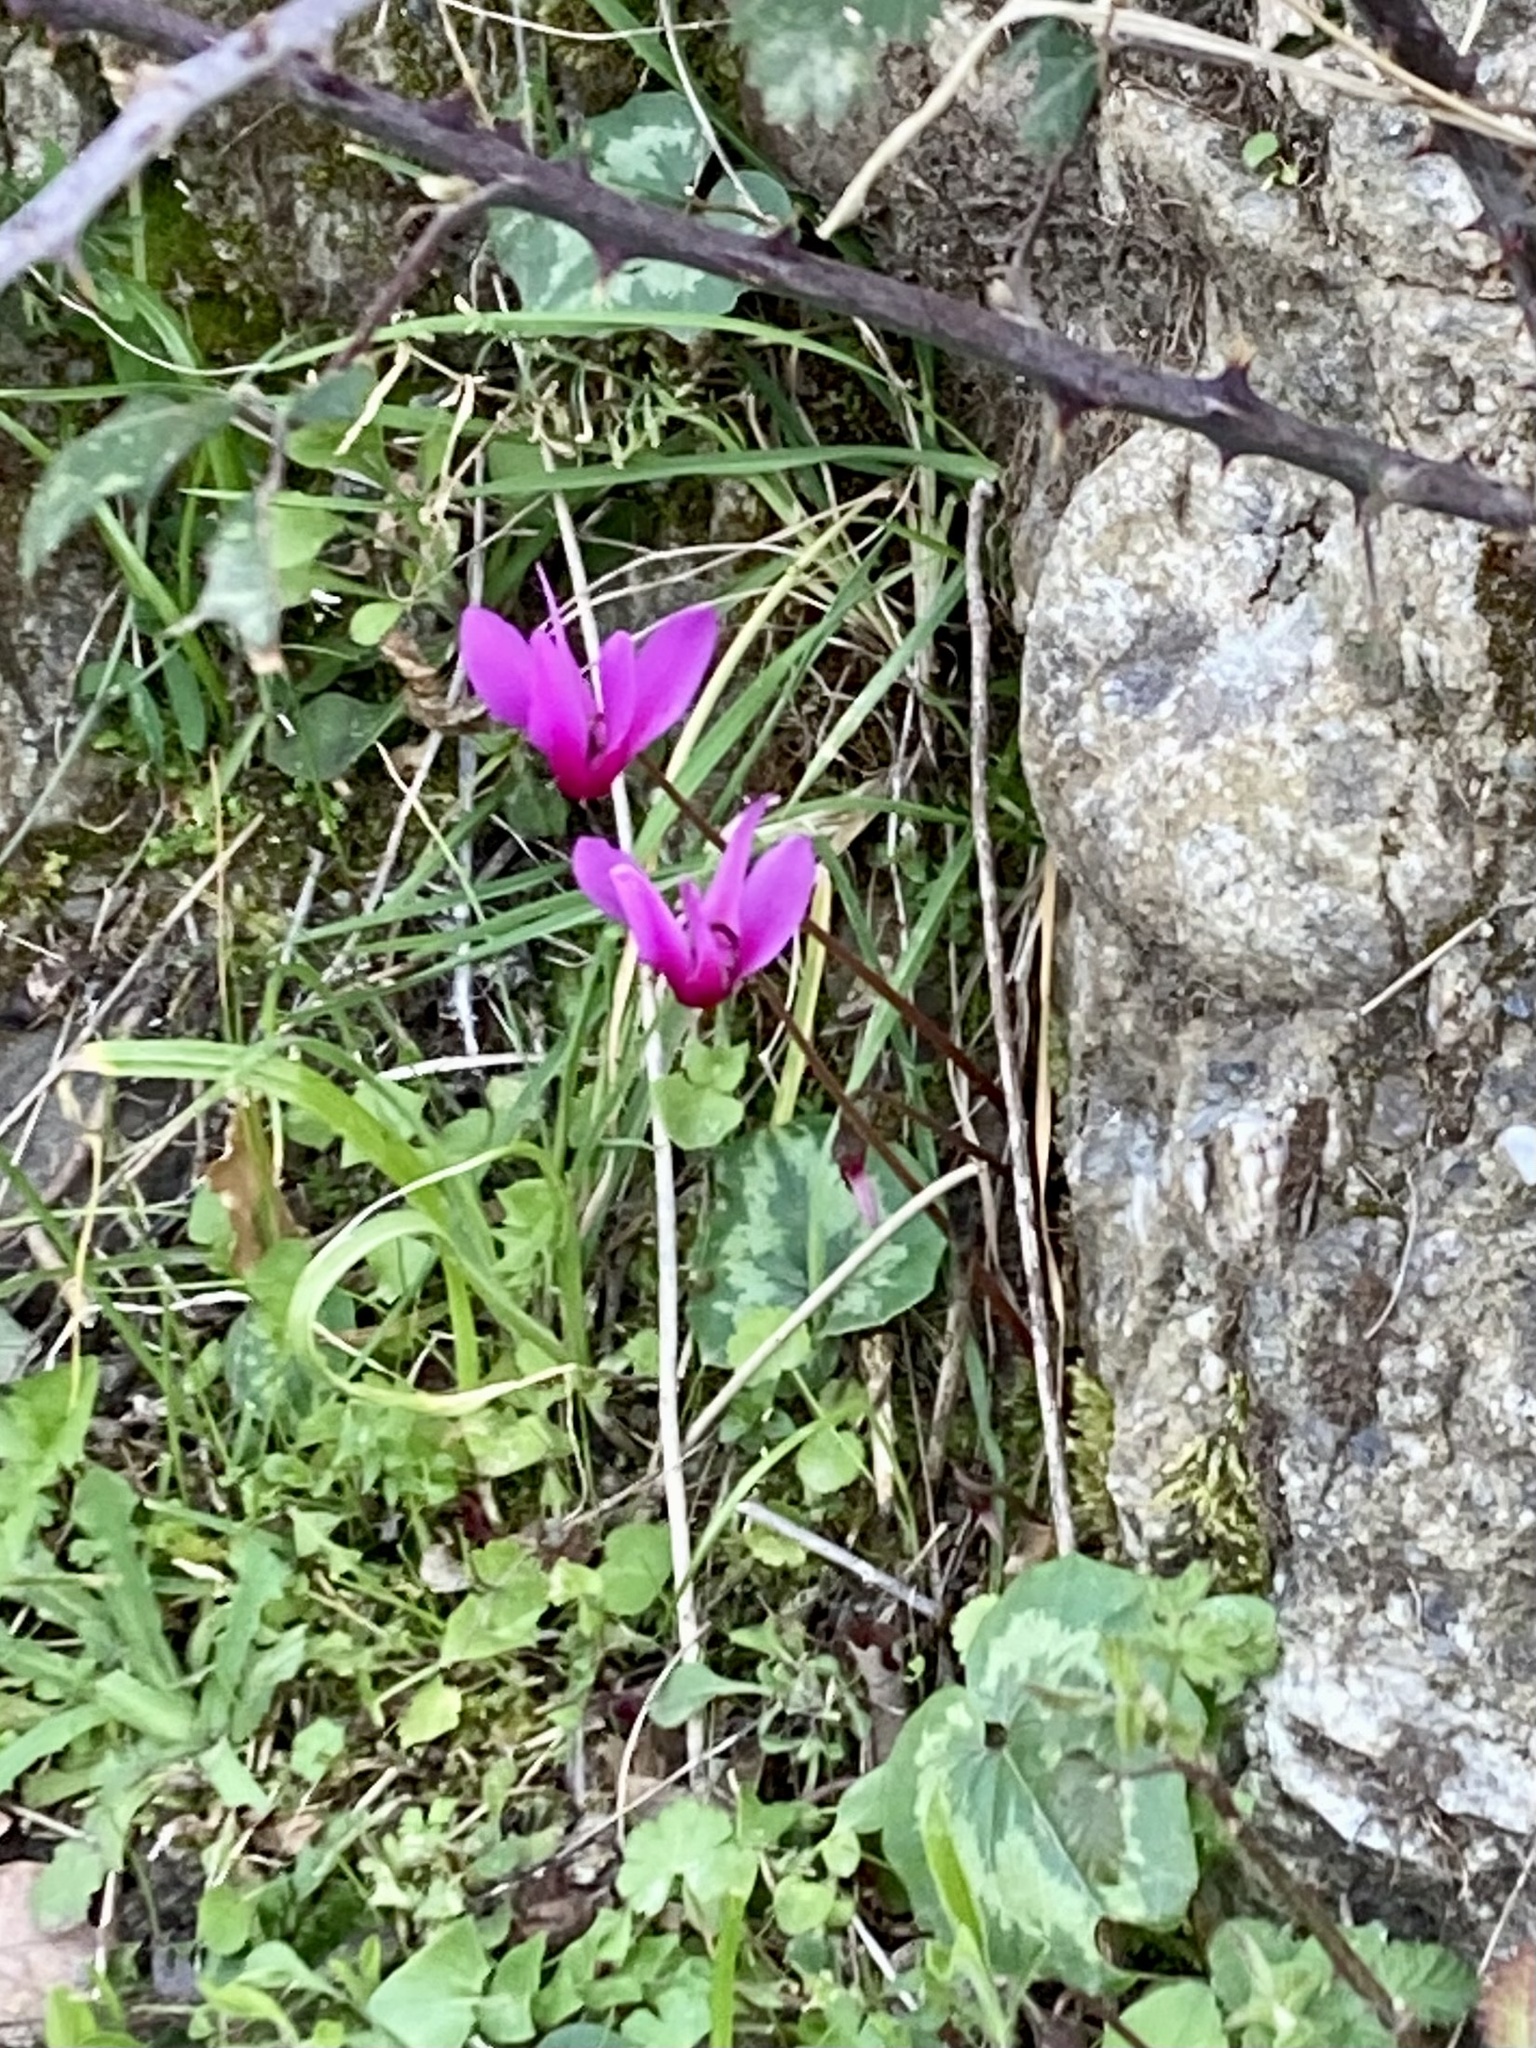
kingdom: Plantae
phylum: Tracheophyta
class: Magnoliopsida
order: Ericales
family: Primulaceae
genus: Cyclamen
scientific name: Cyclamen repandum
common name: Spring sowbread
